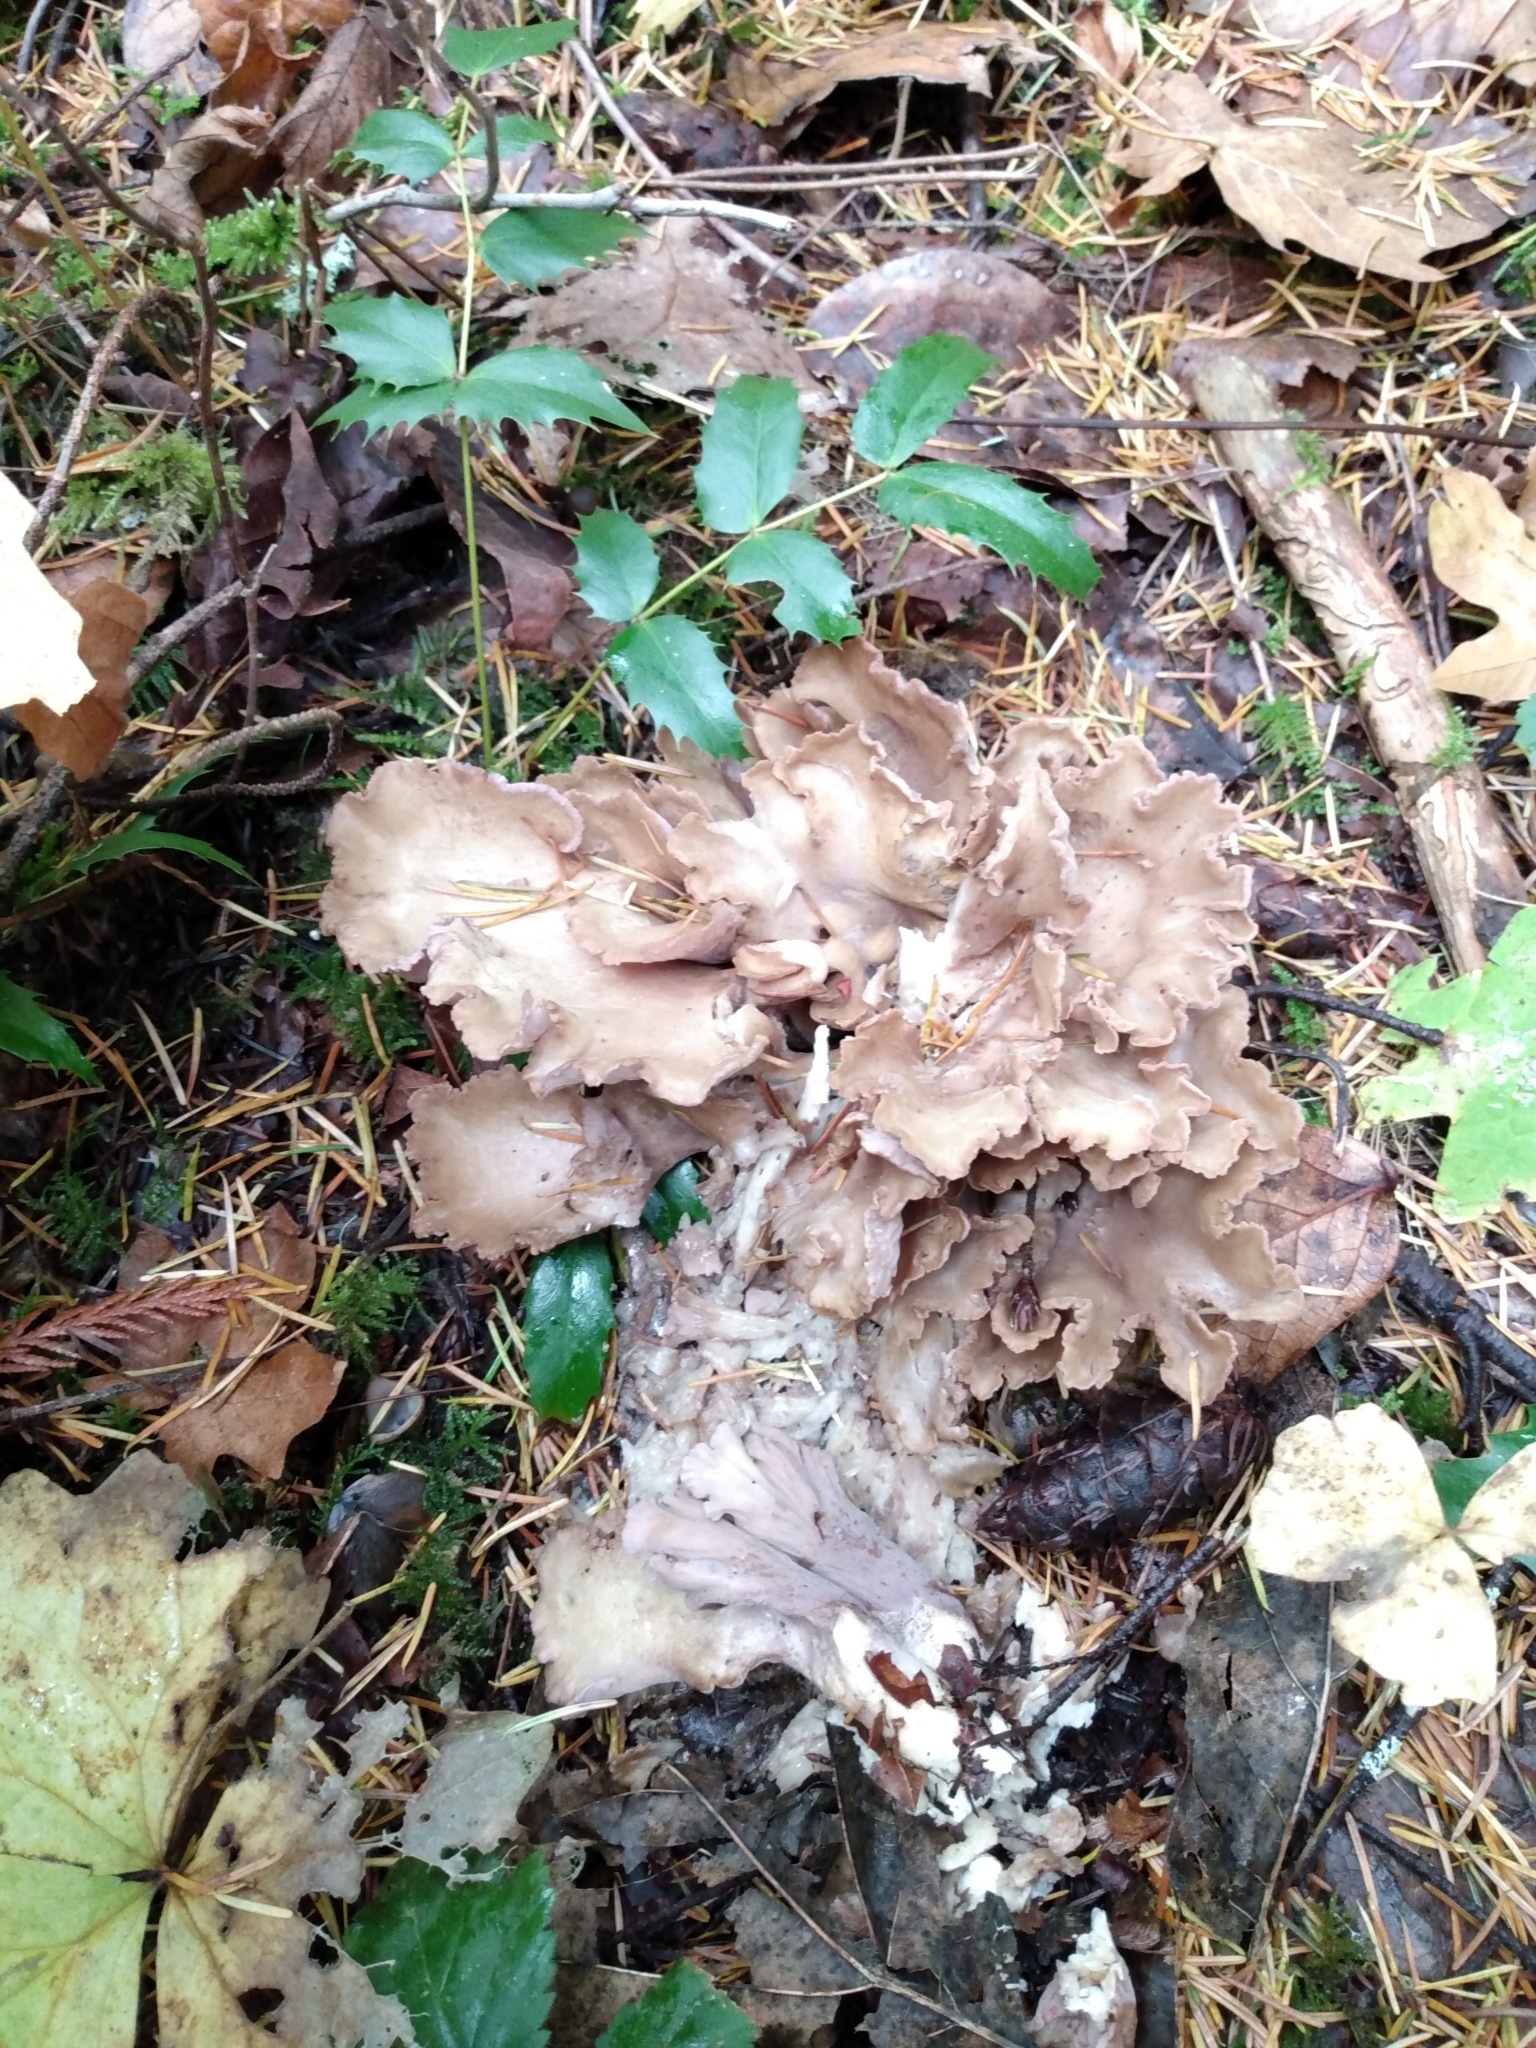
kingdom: Fungi
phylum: Basidiomycota
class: Agaricomycetes
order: Gomphales
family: Gomphaceae
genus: Gomphus
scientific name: Gomphus clavatus
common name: Pig's ear
